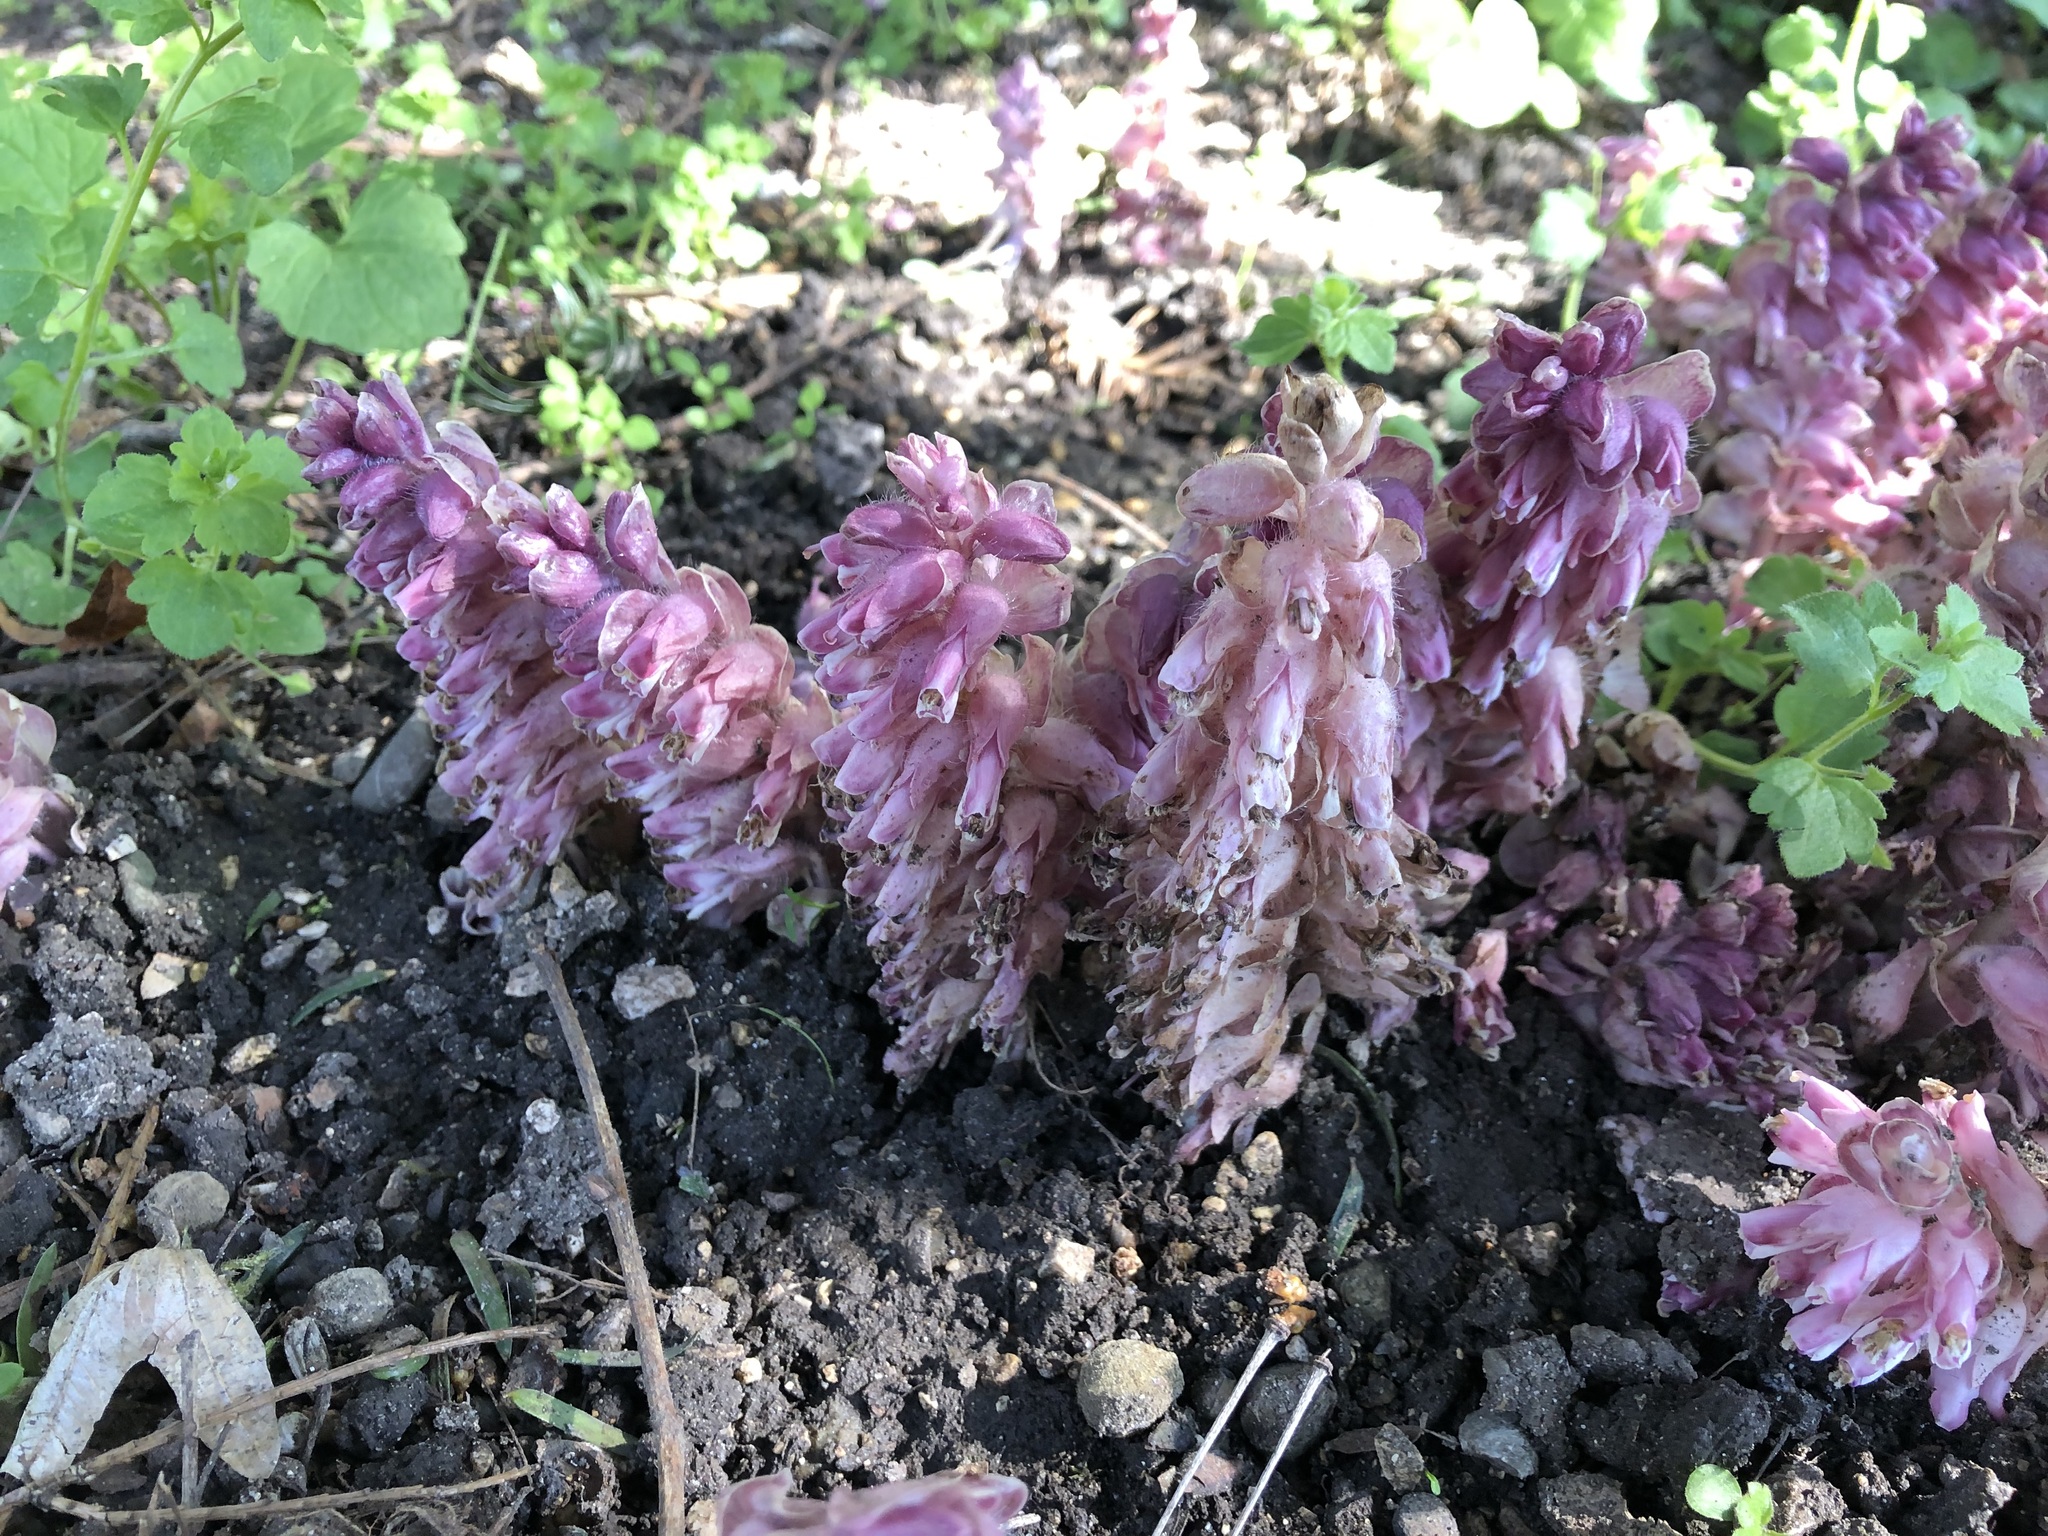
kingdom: Plantae
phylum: Tracheophyta
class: Magnoliopsida
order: Lamiales
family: Orobanchaceae
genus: Lathraea
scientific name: Lathraea squamaria
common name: Toothwort
